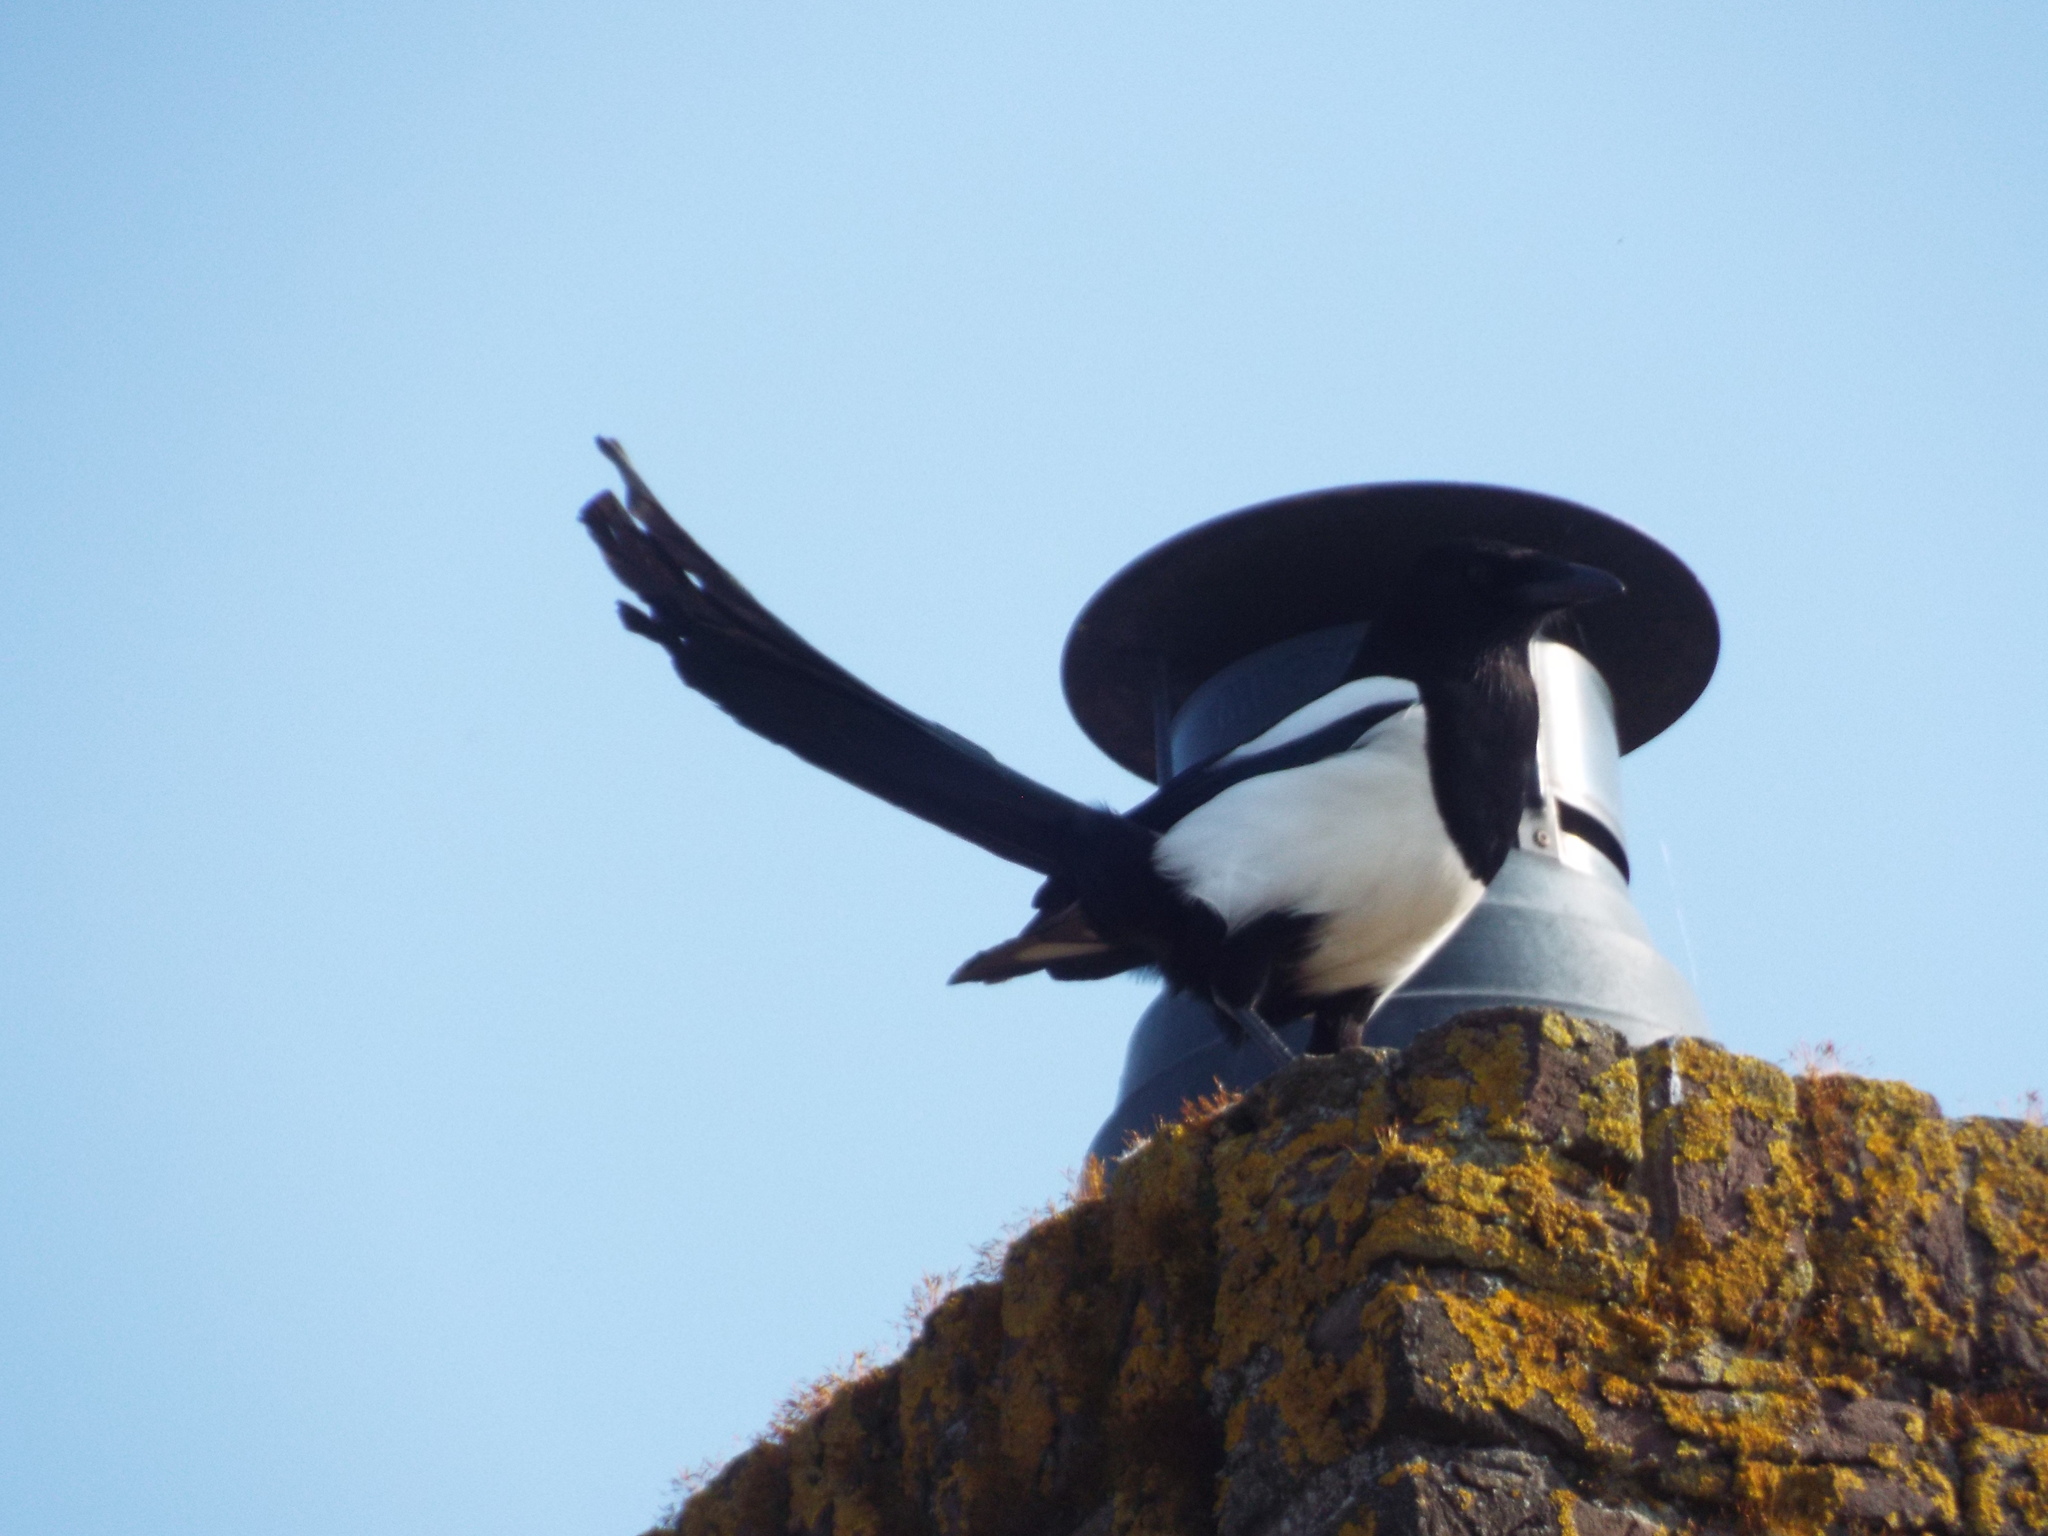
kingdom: Animalia
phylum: Chordata
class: Aves
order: Passeriformes
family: Corvidae
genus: Pica
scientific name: Pica pica
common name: Eurasian magpie
